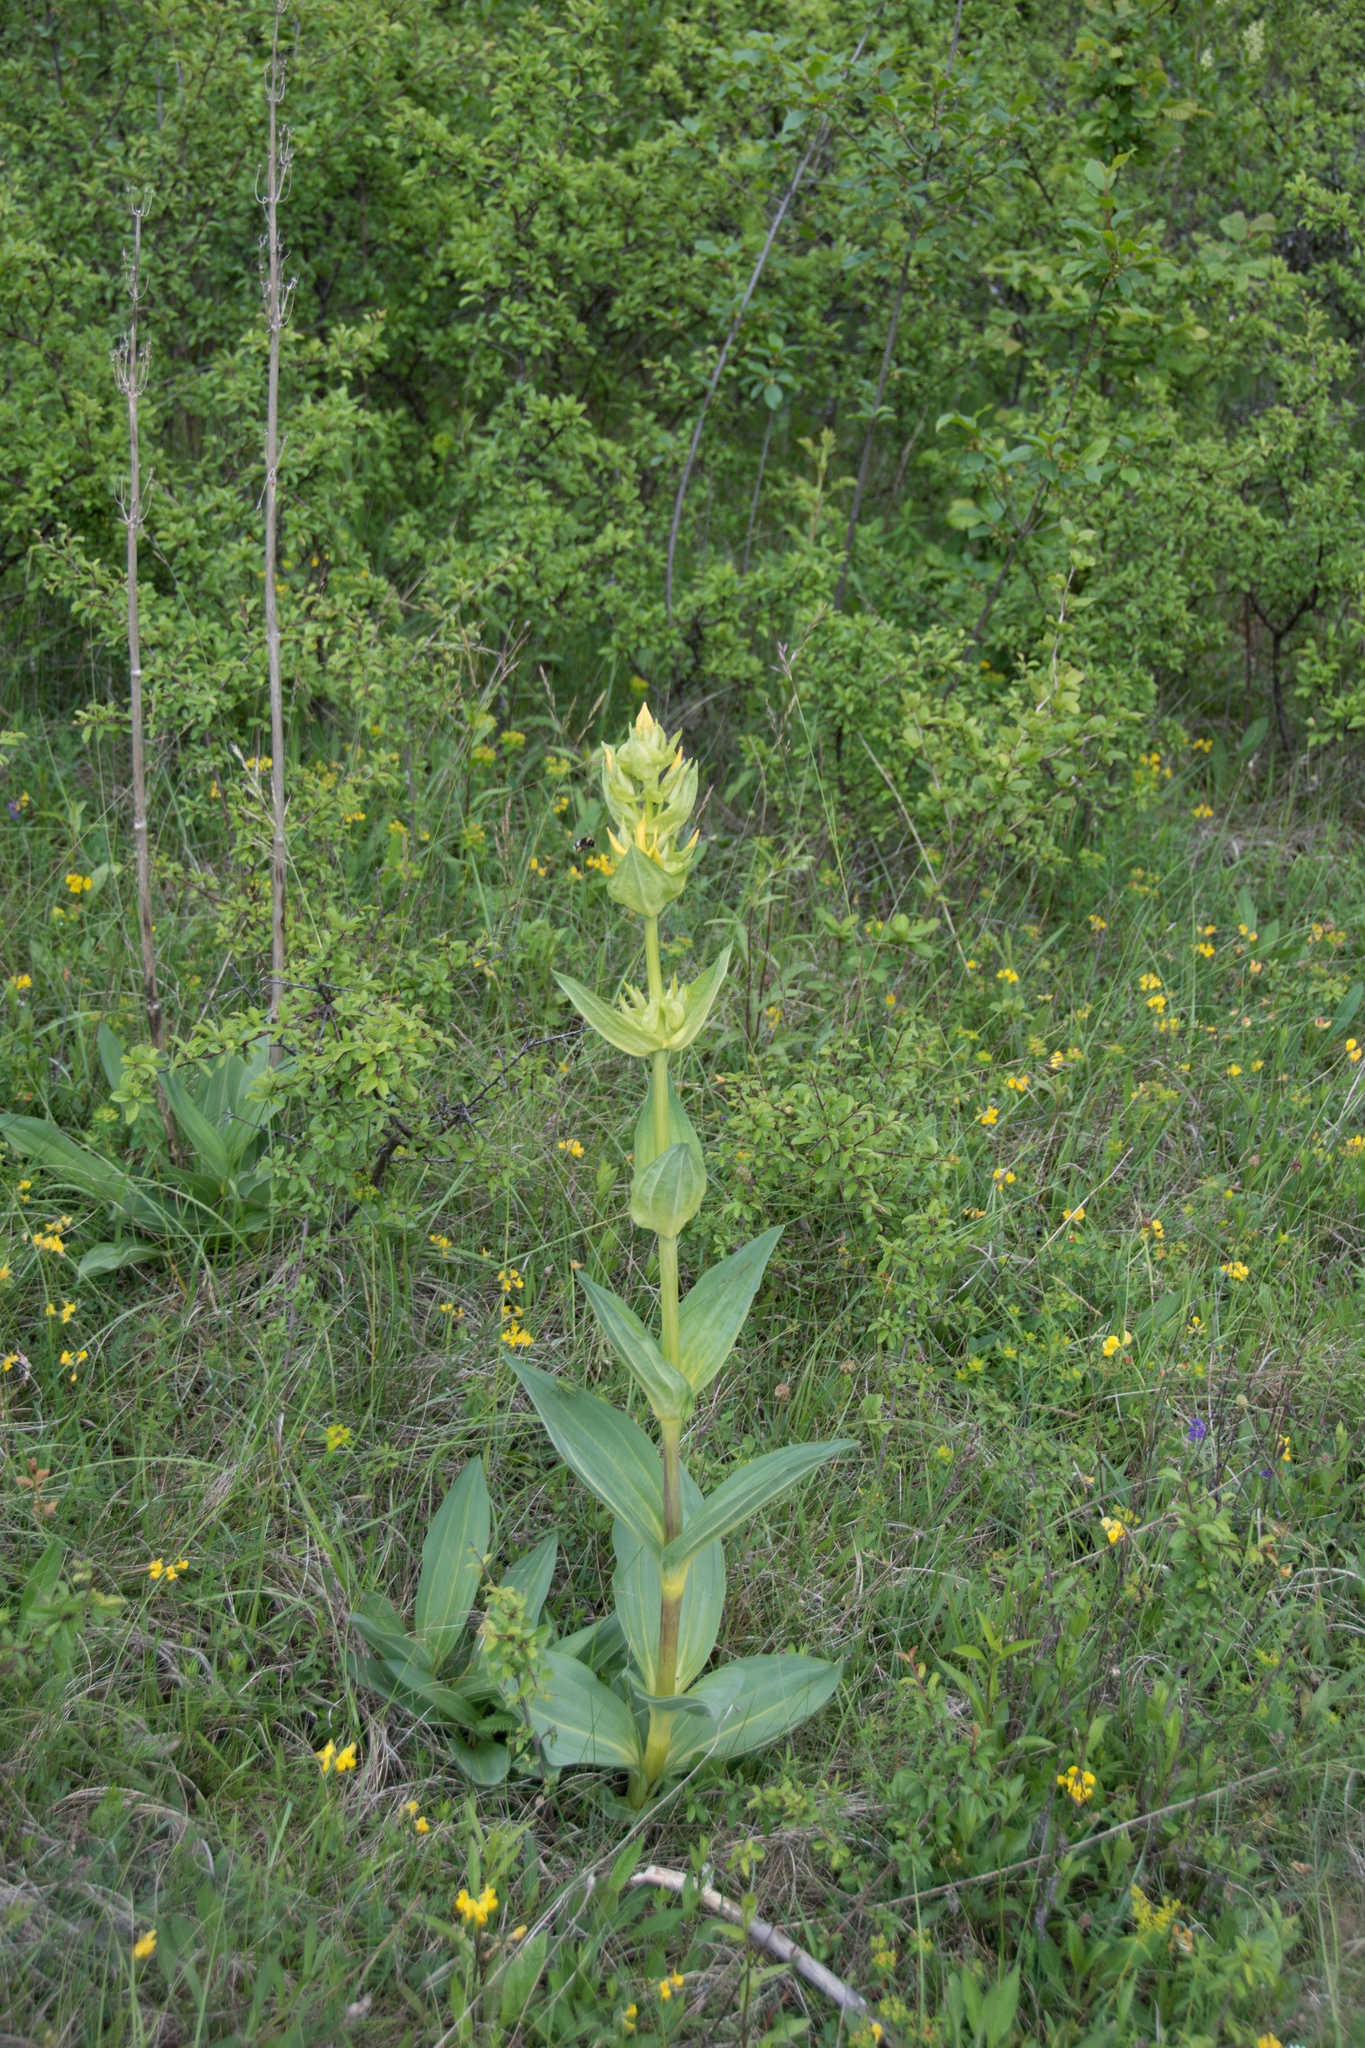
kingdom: Plantae
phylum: Tracheophyta
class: Magnoliopsida
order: Gentianales
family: Gentianaceae
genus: Gentiana
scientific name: Gentiana lutea
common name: Great yellow gentian
